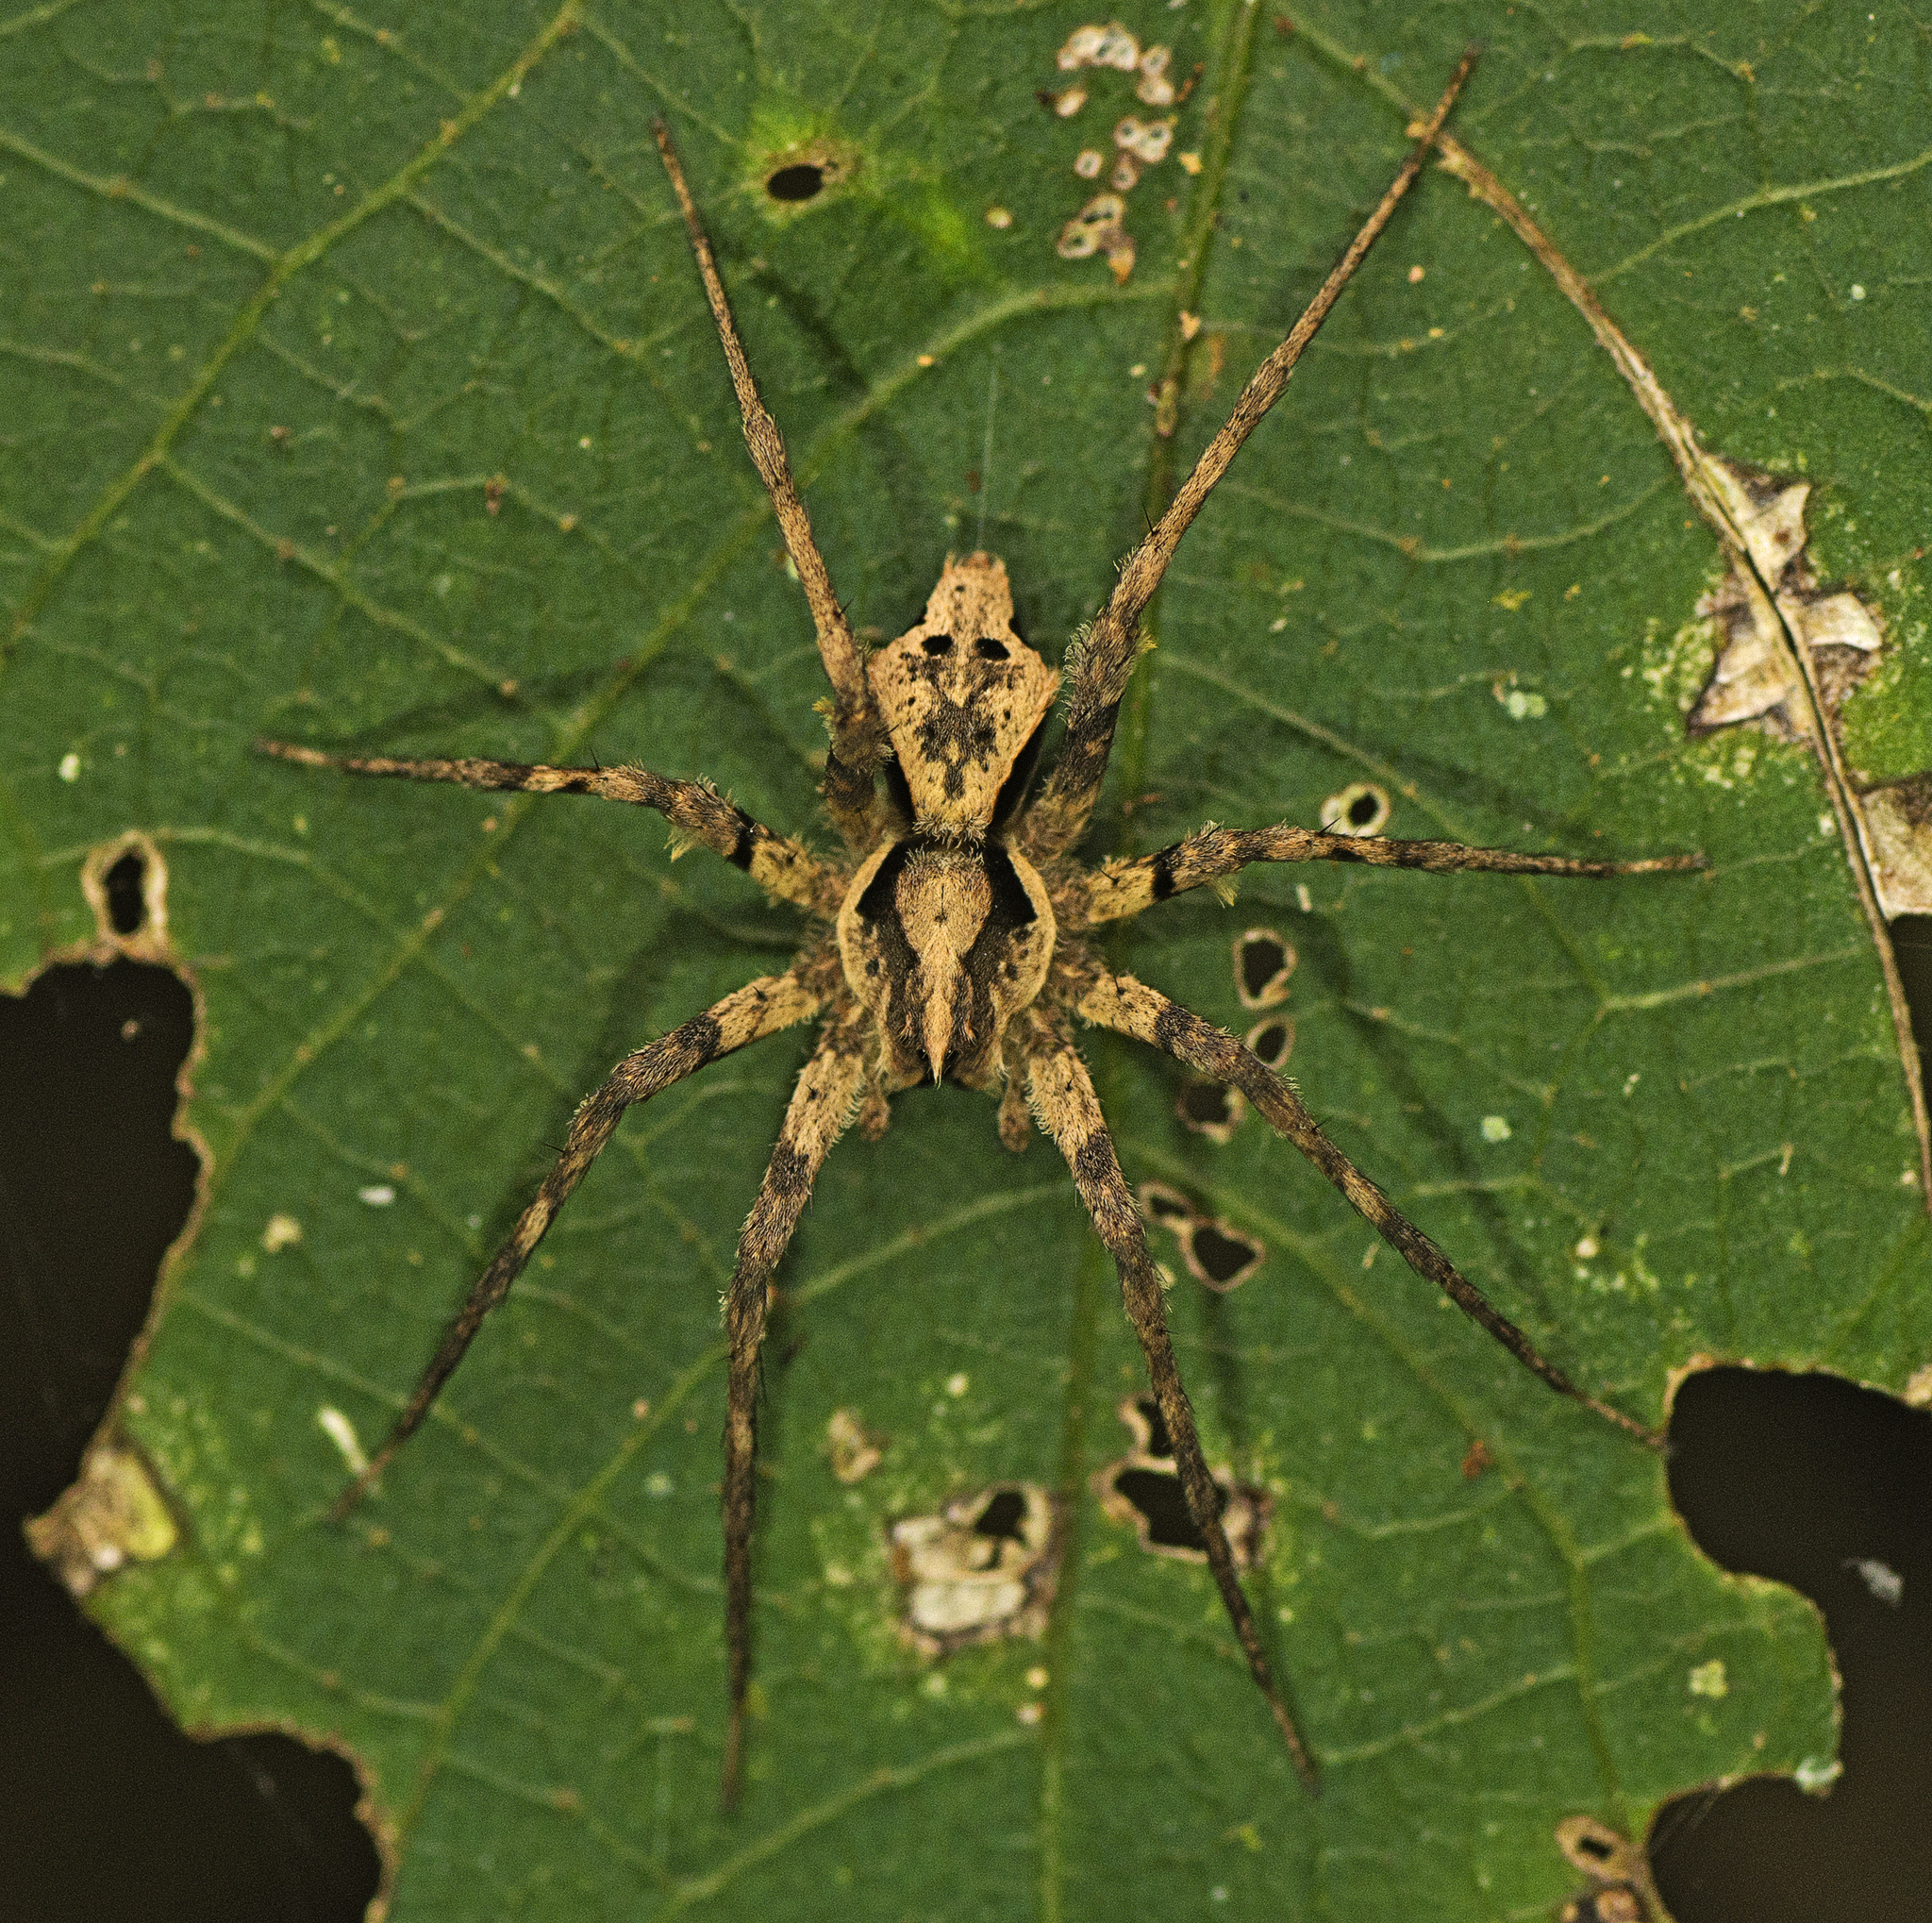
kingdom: Animalia
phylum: Arthropoda
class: Arachnida
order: Araneae
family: Pisauridae
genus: Ornodolomedes
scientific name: Ornodolomedes benrevelli
